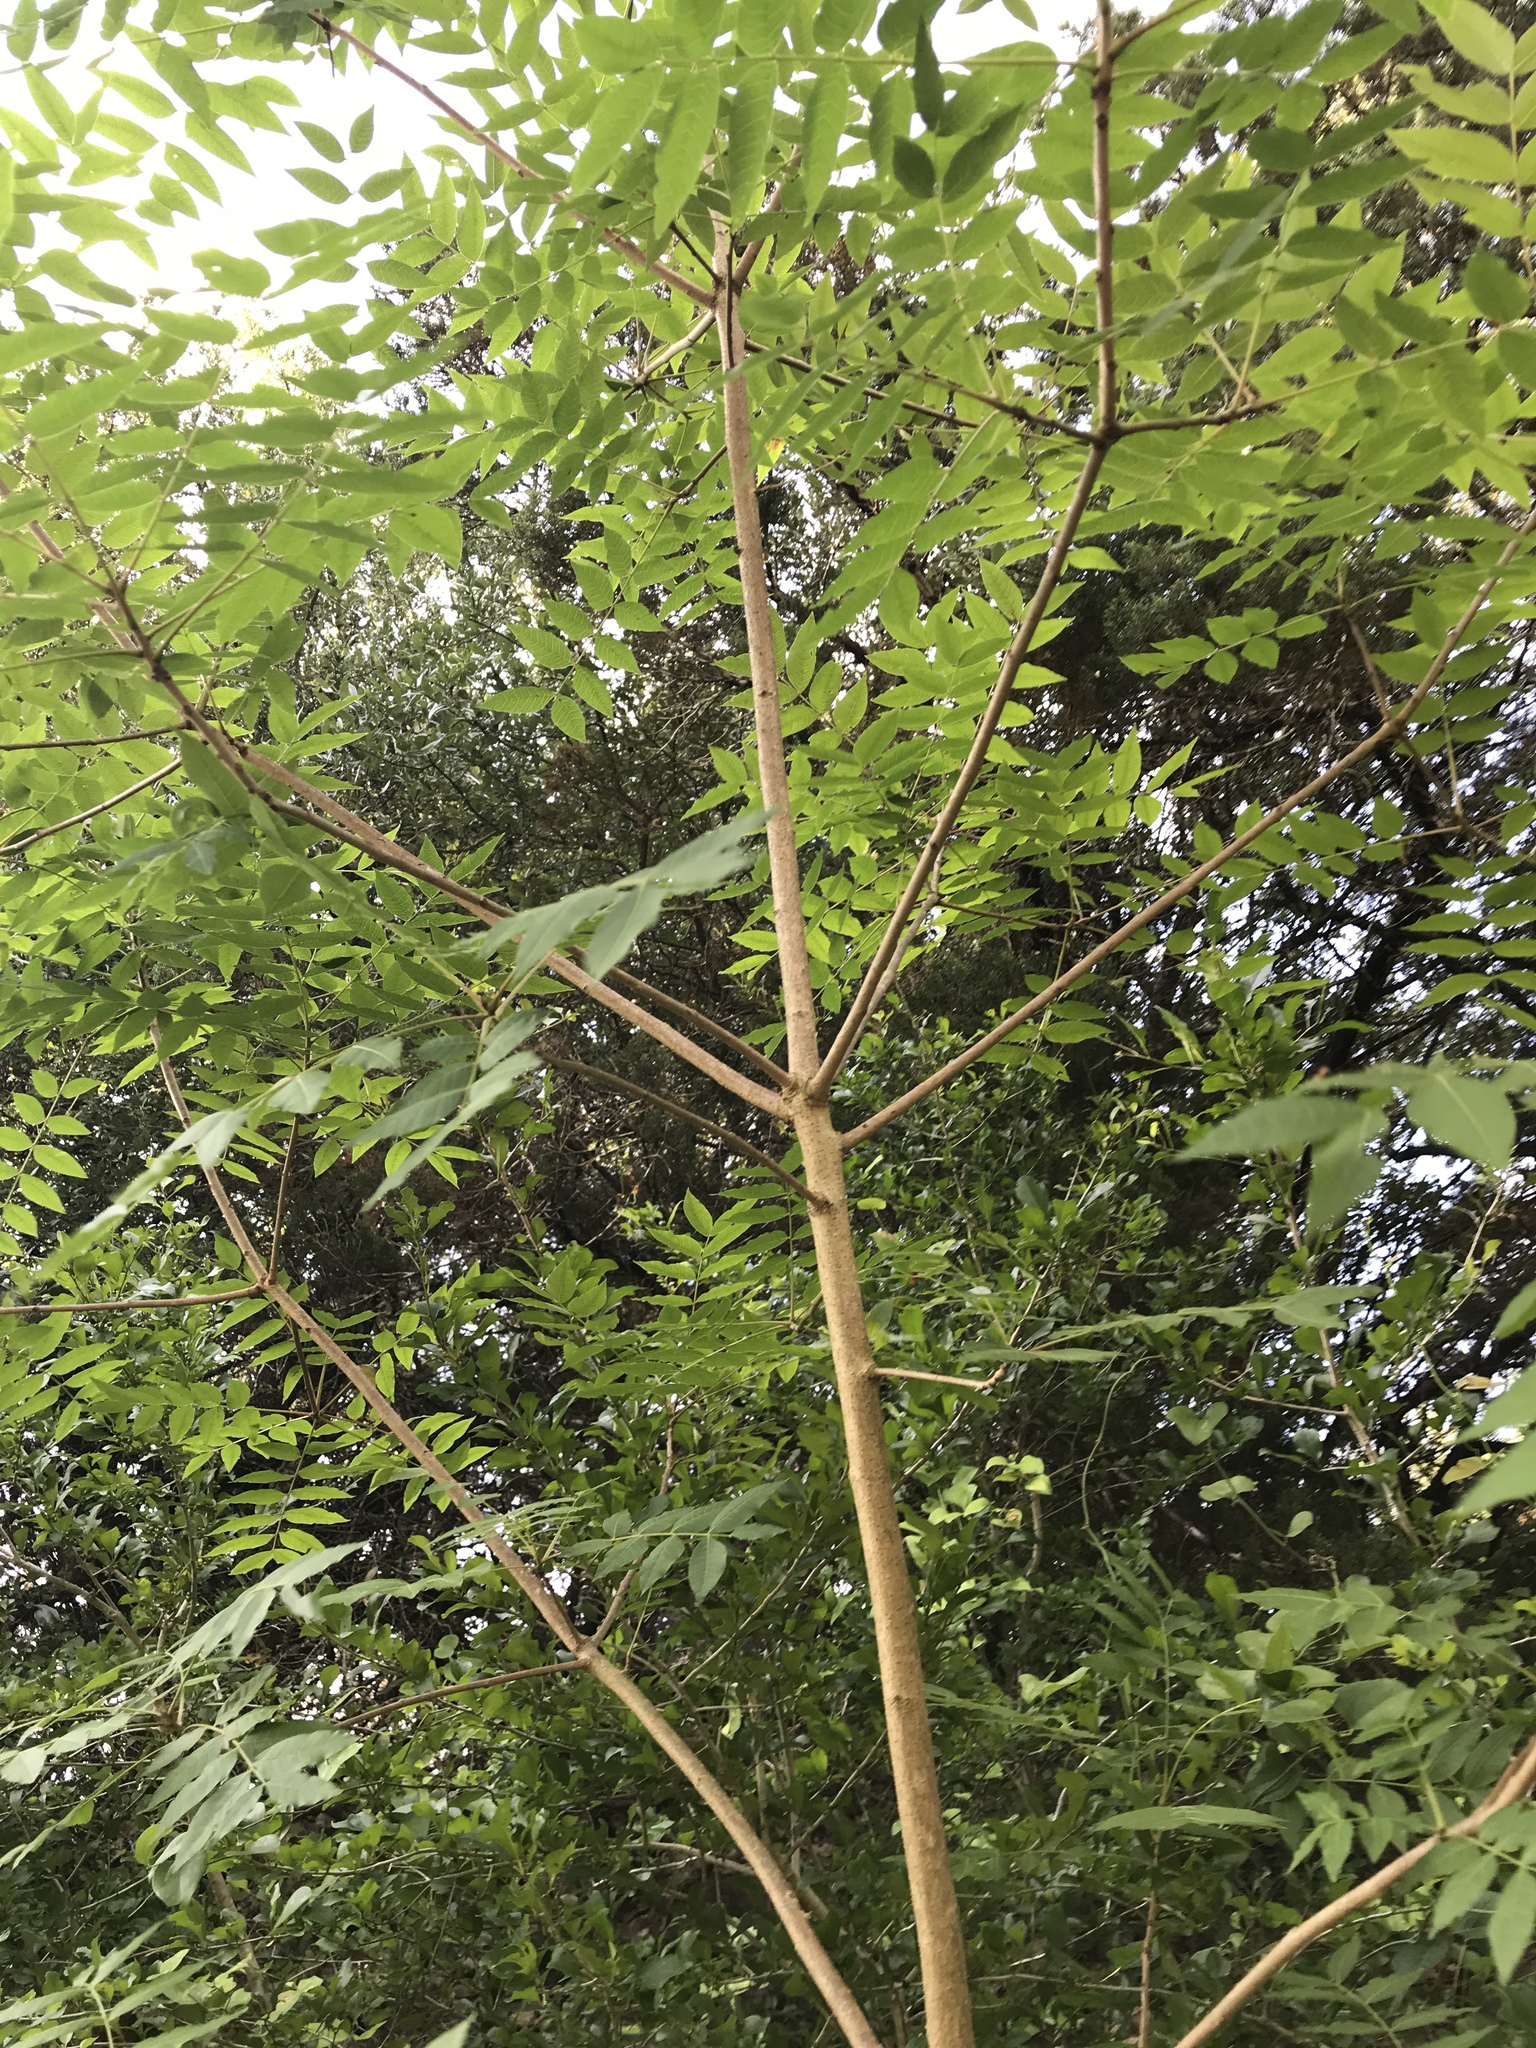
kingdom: Plantae
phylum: Tracheophyta
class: Magnoliopsida
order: Sapindales
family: Anacardiaceae
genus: Pistacia
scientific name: Pistacia chinensis
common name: Chinese pistache
